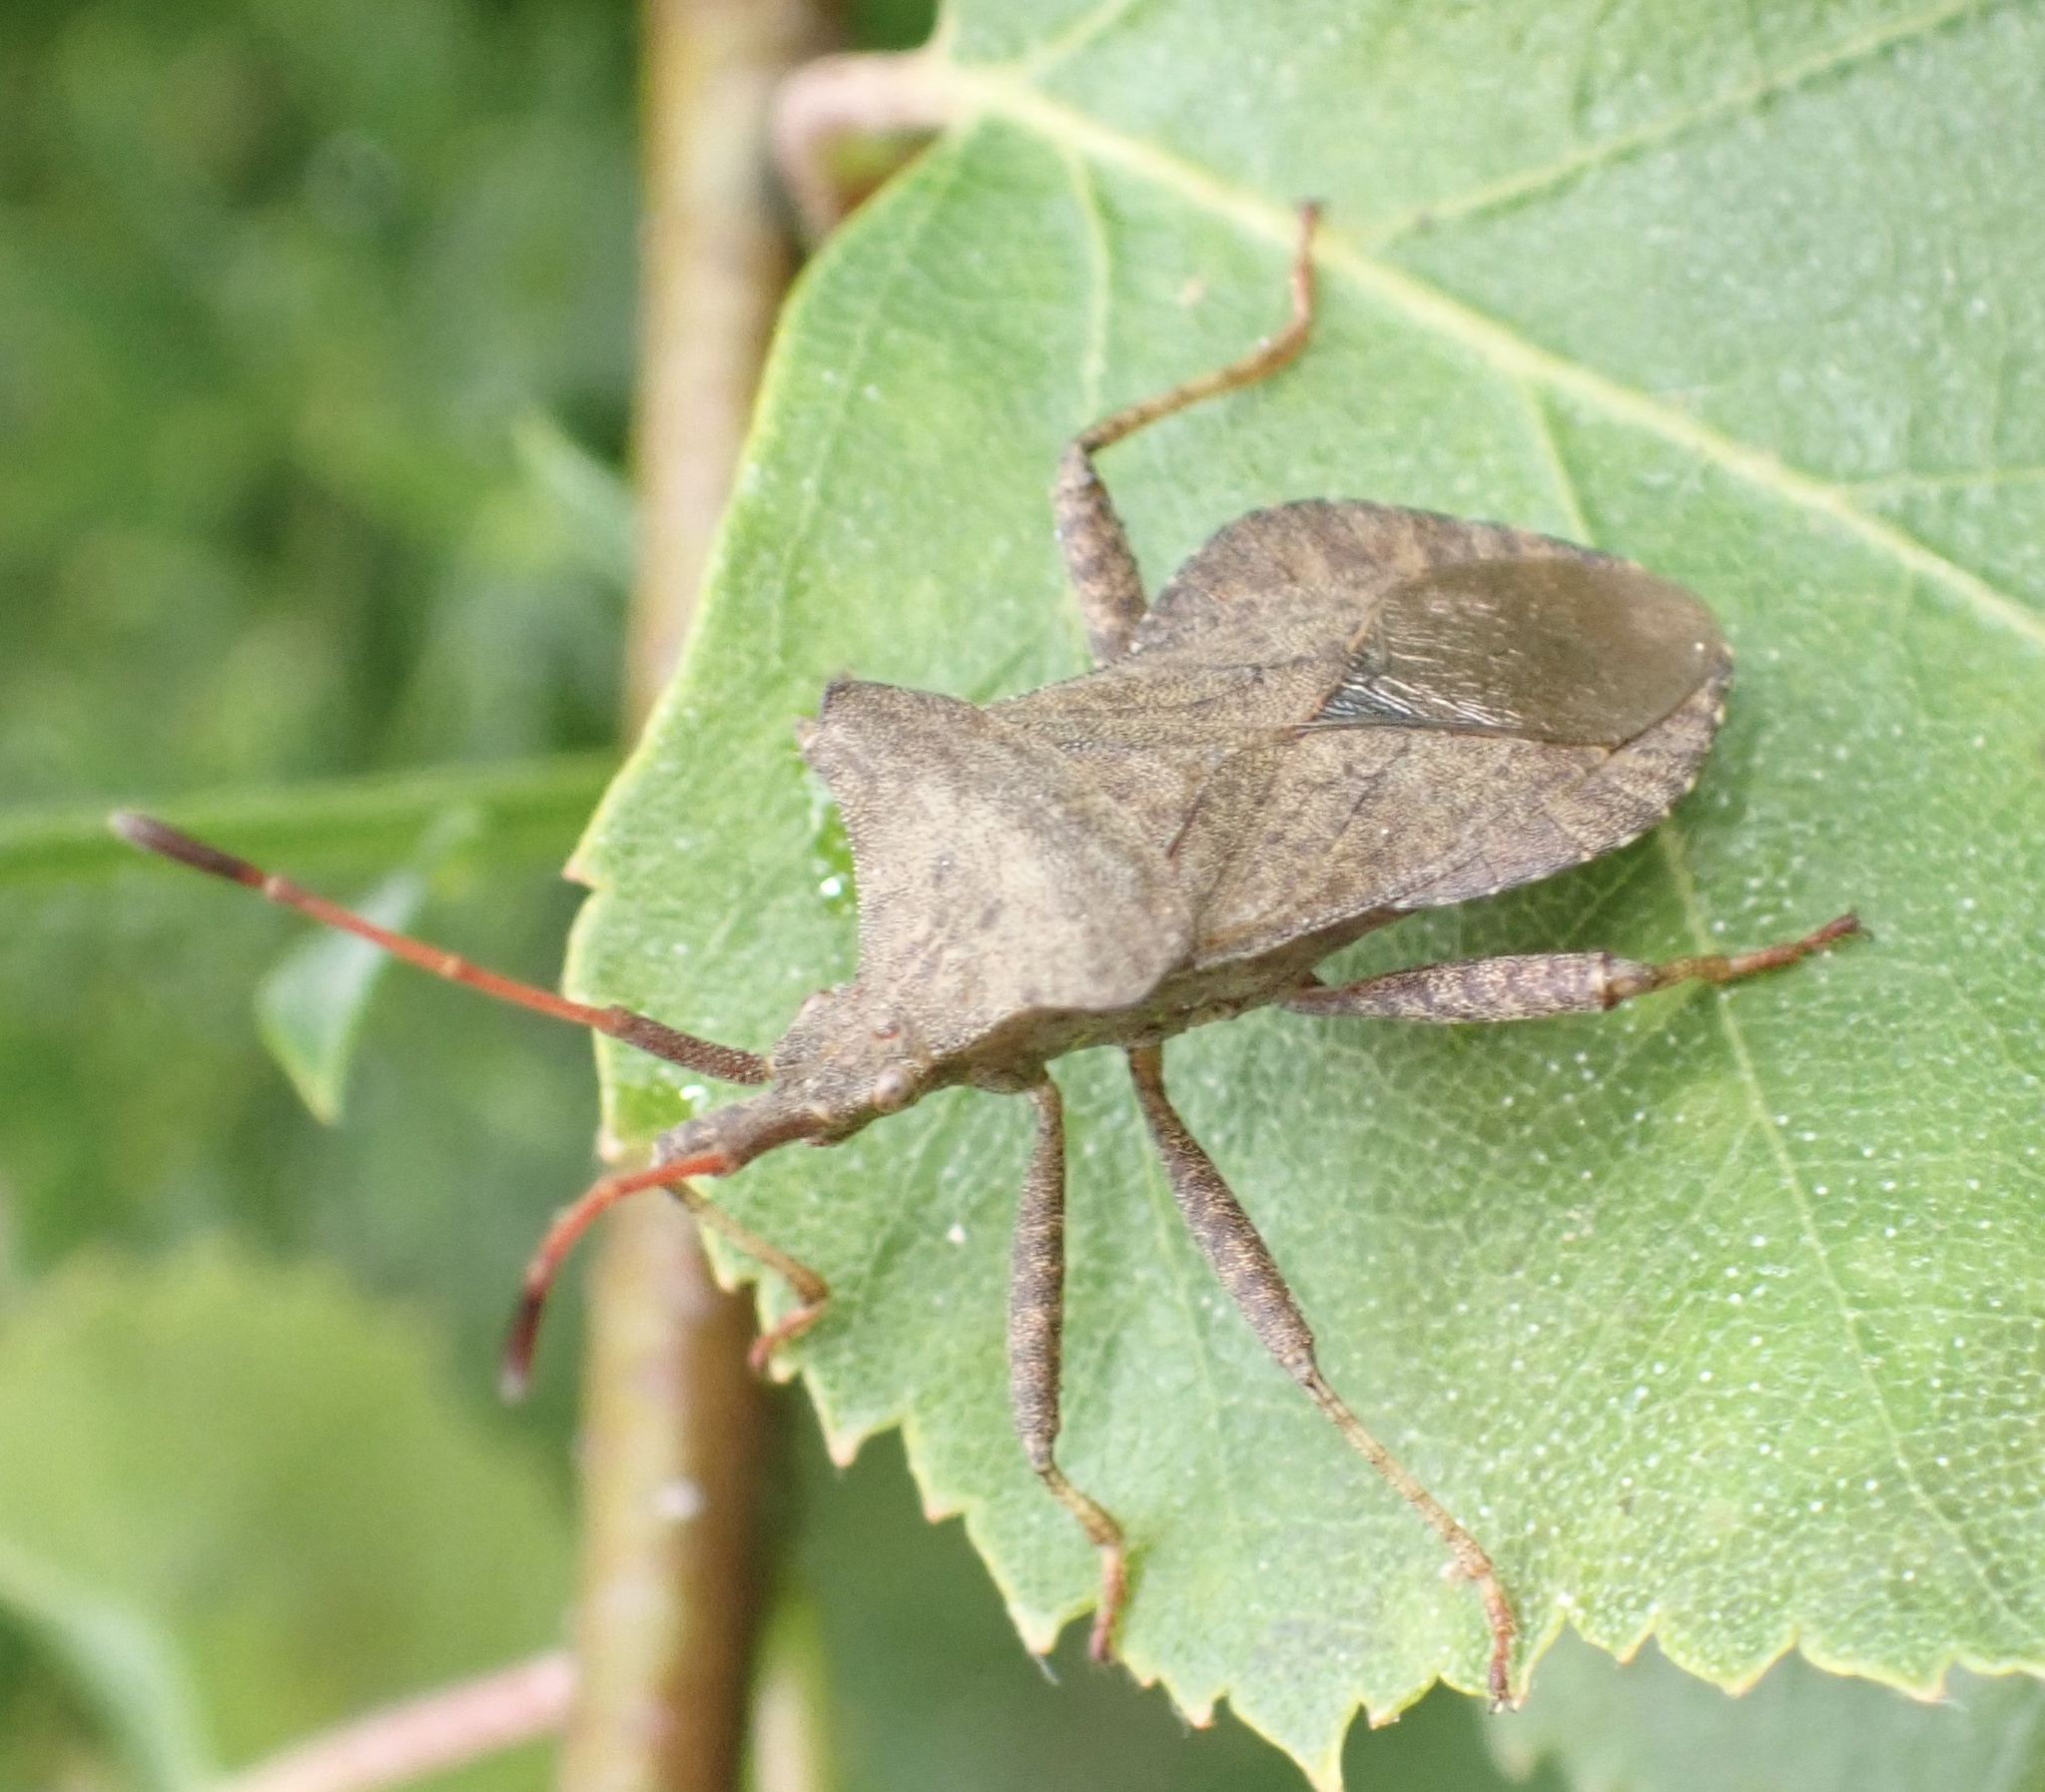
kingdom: Animalia
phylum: Arthropoda
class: Insecta
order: Hemiptera
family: Coreidae
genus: Coreus
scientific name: Coreus marginatus
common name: Dock bug
